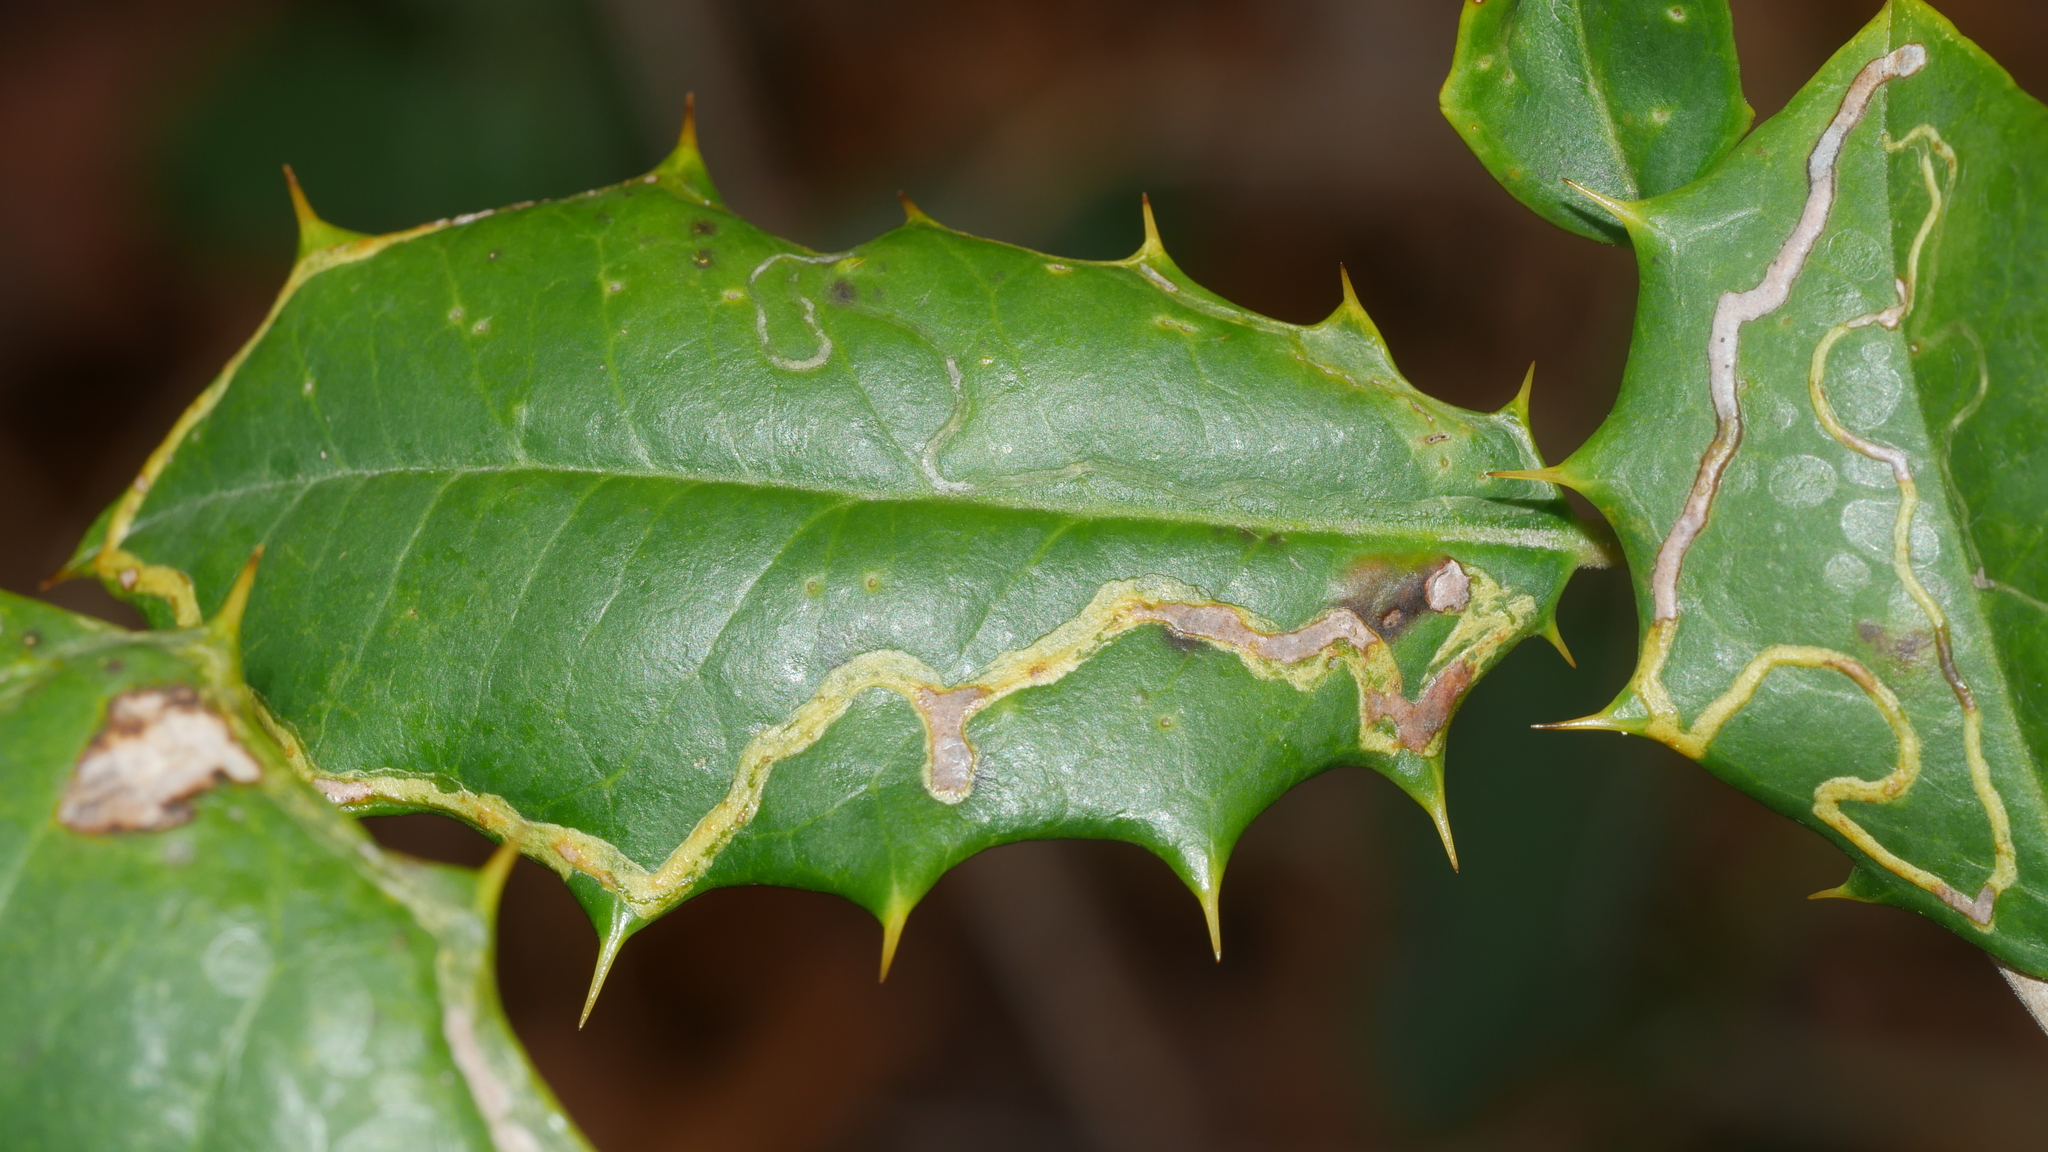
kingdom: Animalia
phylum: Arthropoda
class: Insecta
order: Diptera
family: Agromyzidae
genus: Phytomyza
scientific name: Phytomyza opacae
